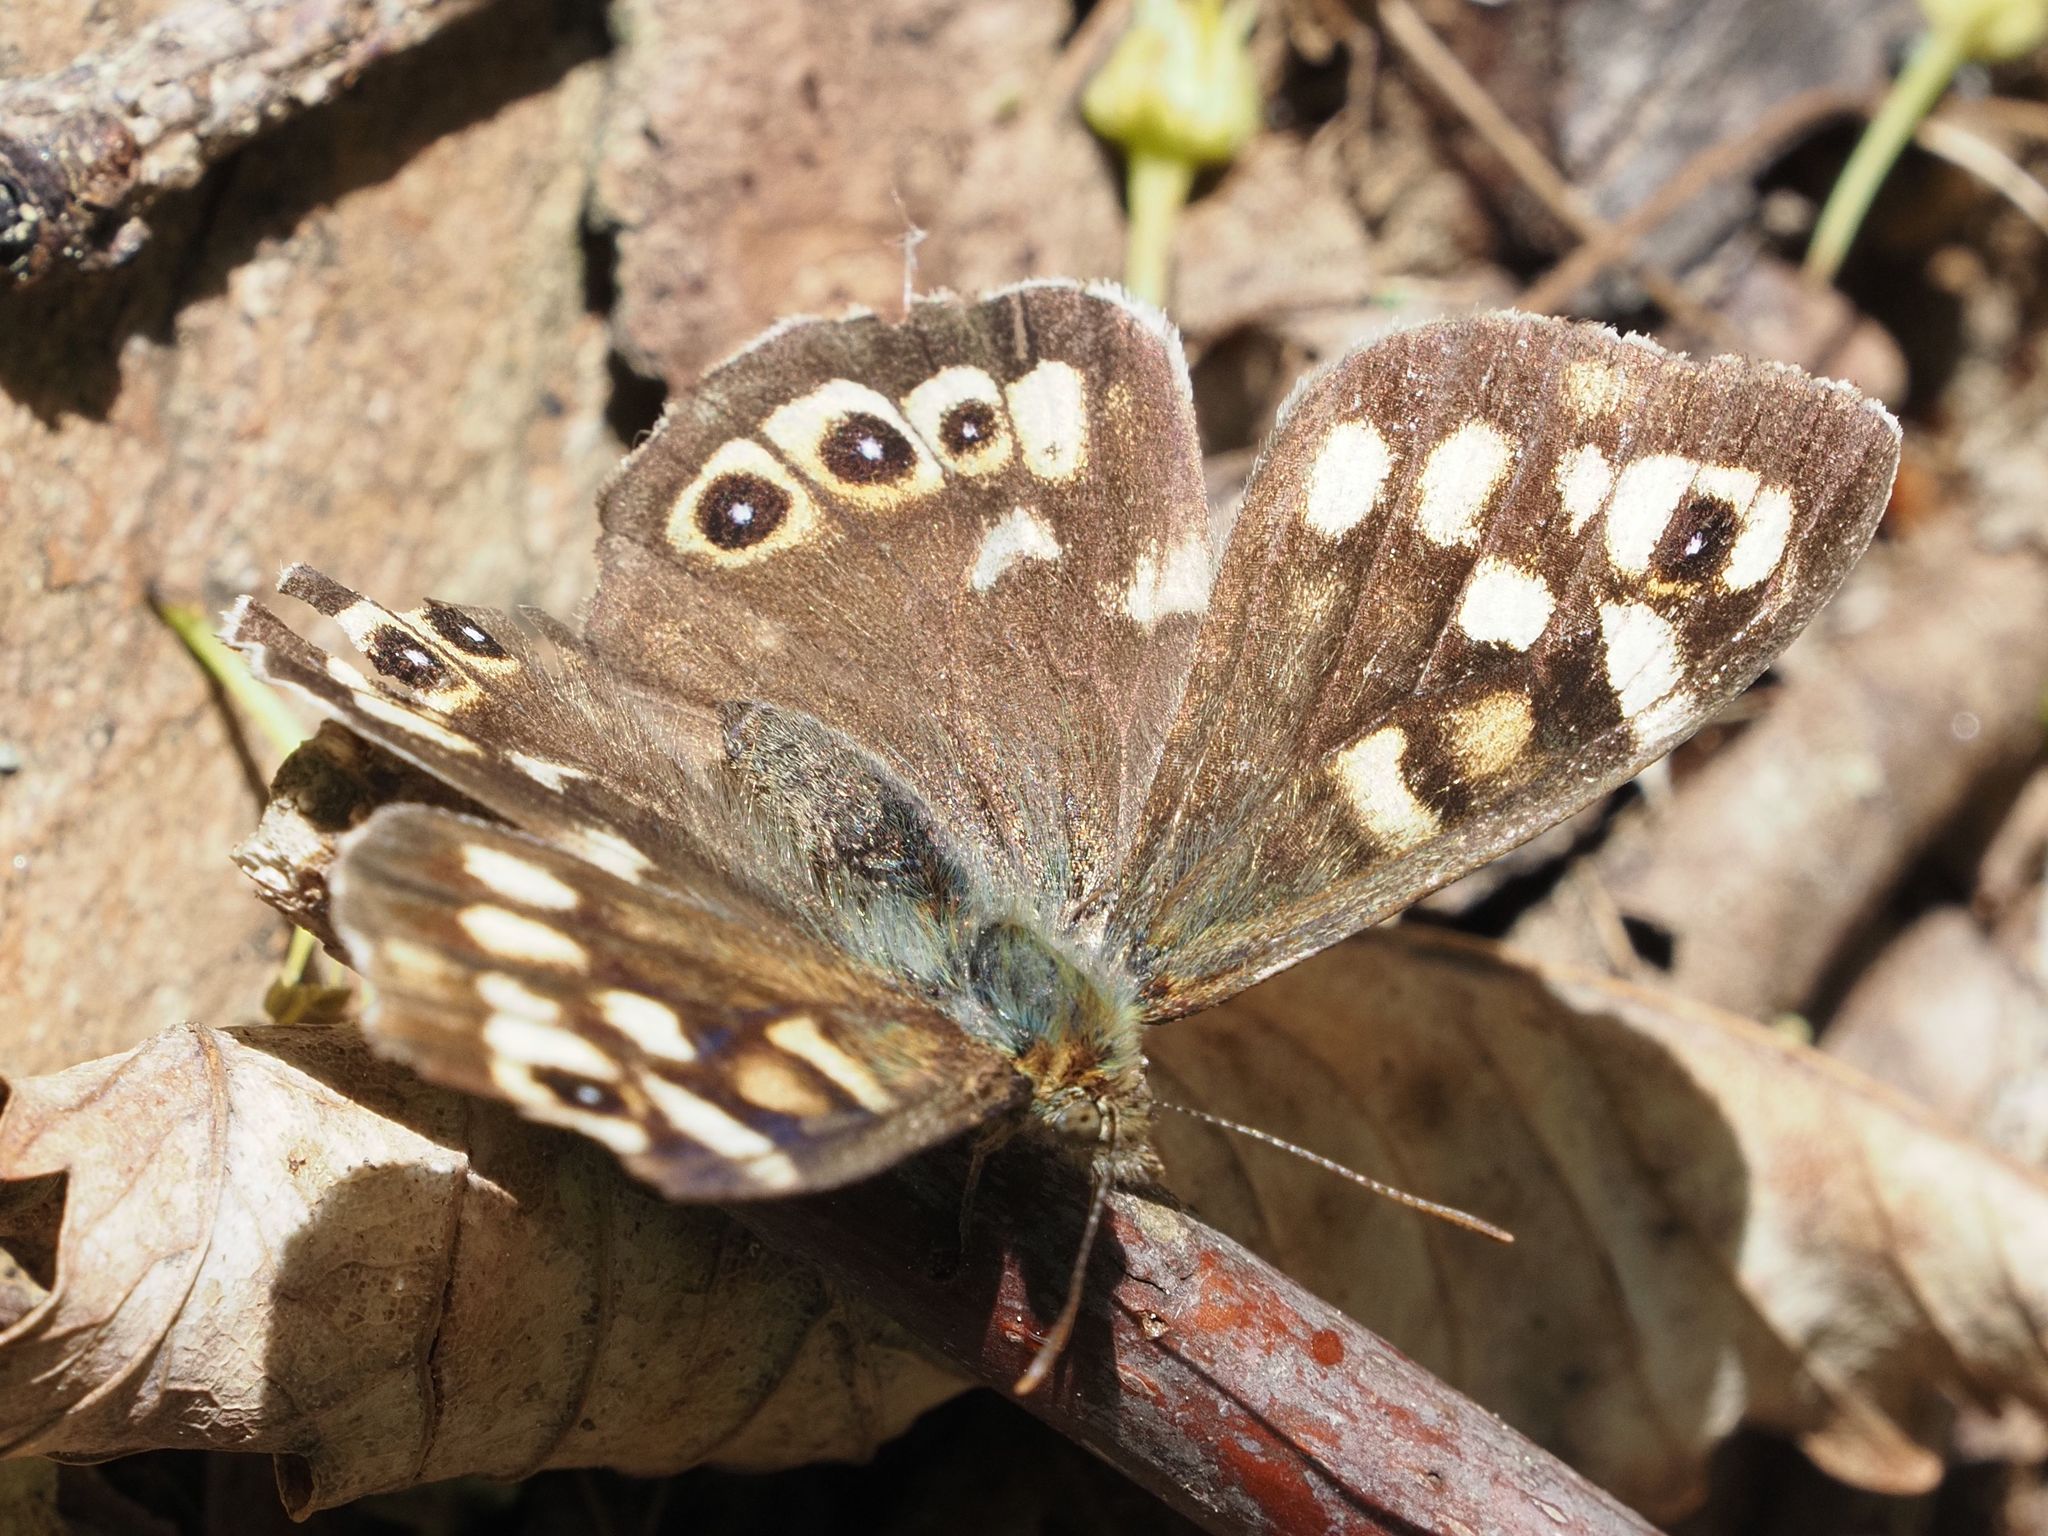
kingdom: Animalia
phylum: Arthropoda
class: Insecta
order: Lepidoptera
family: Nymphalidae
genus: Pararge
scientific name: Pararge aegeria
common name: Speckled wood
